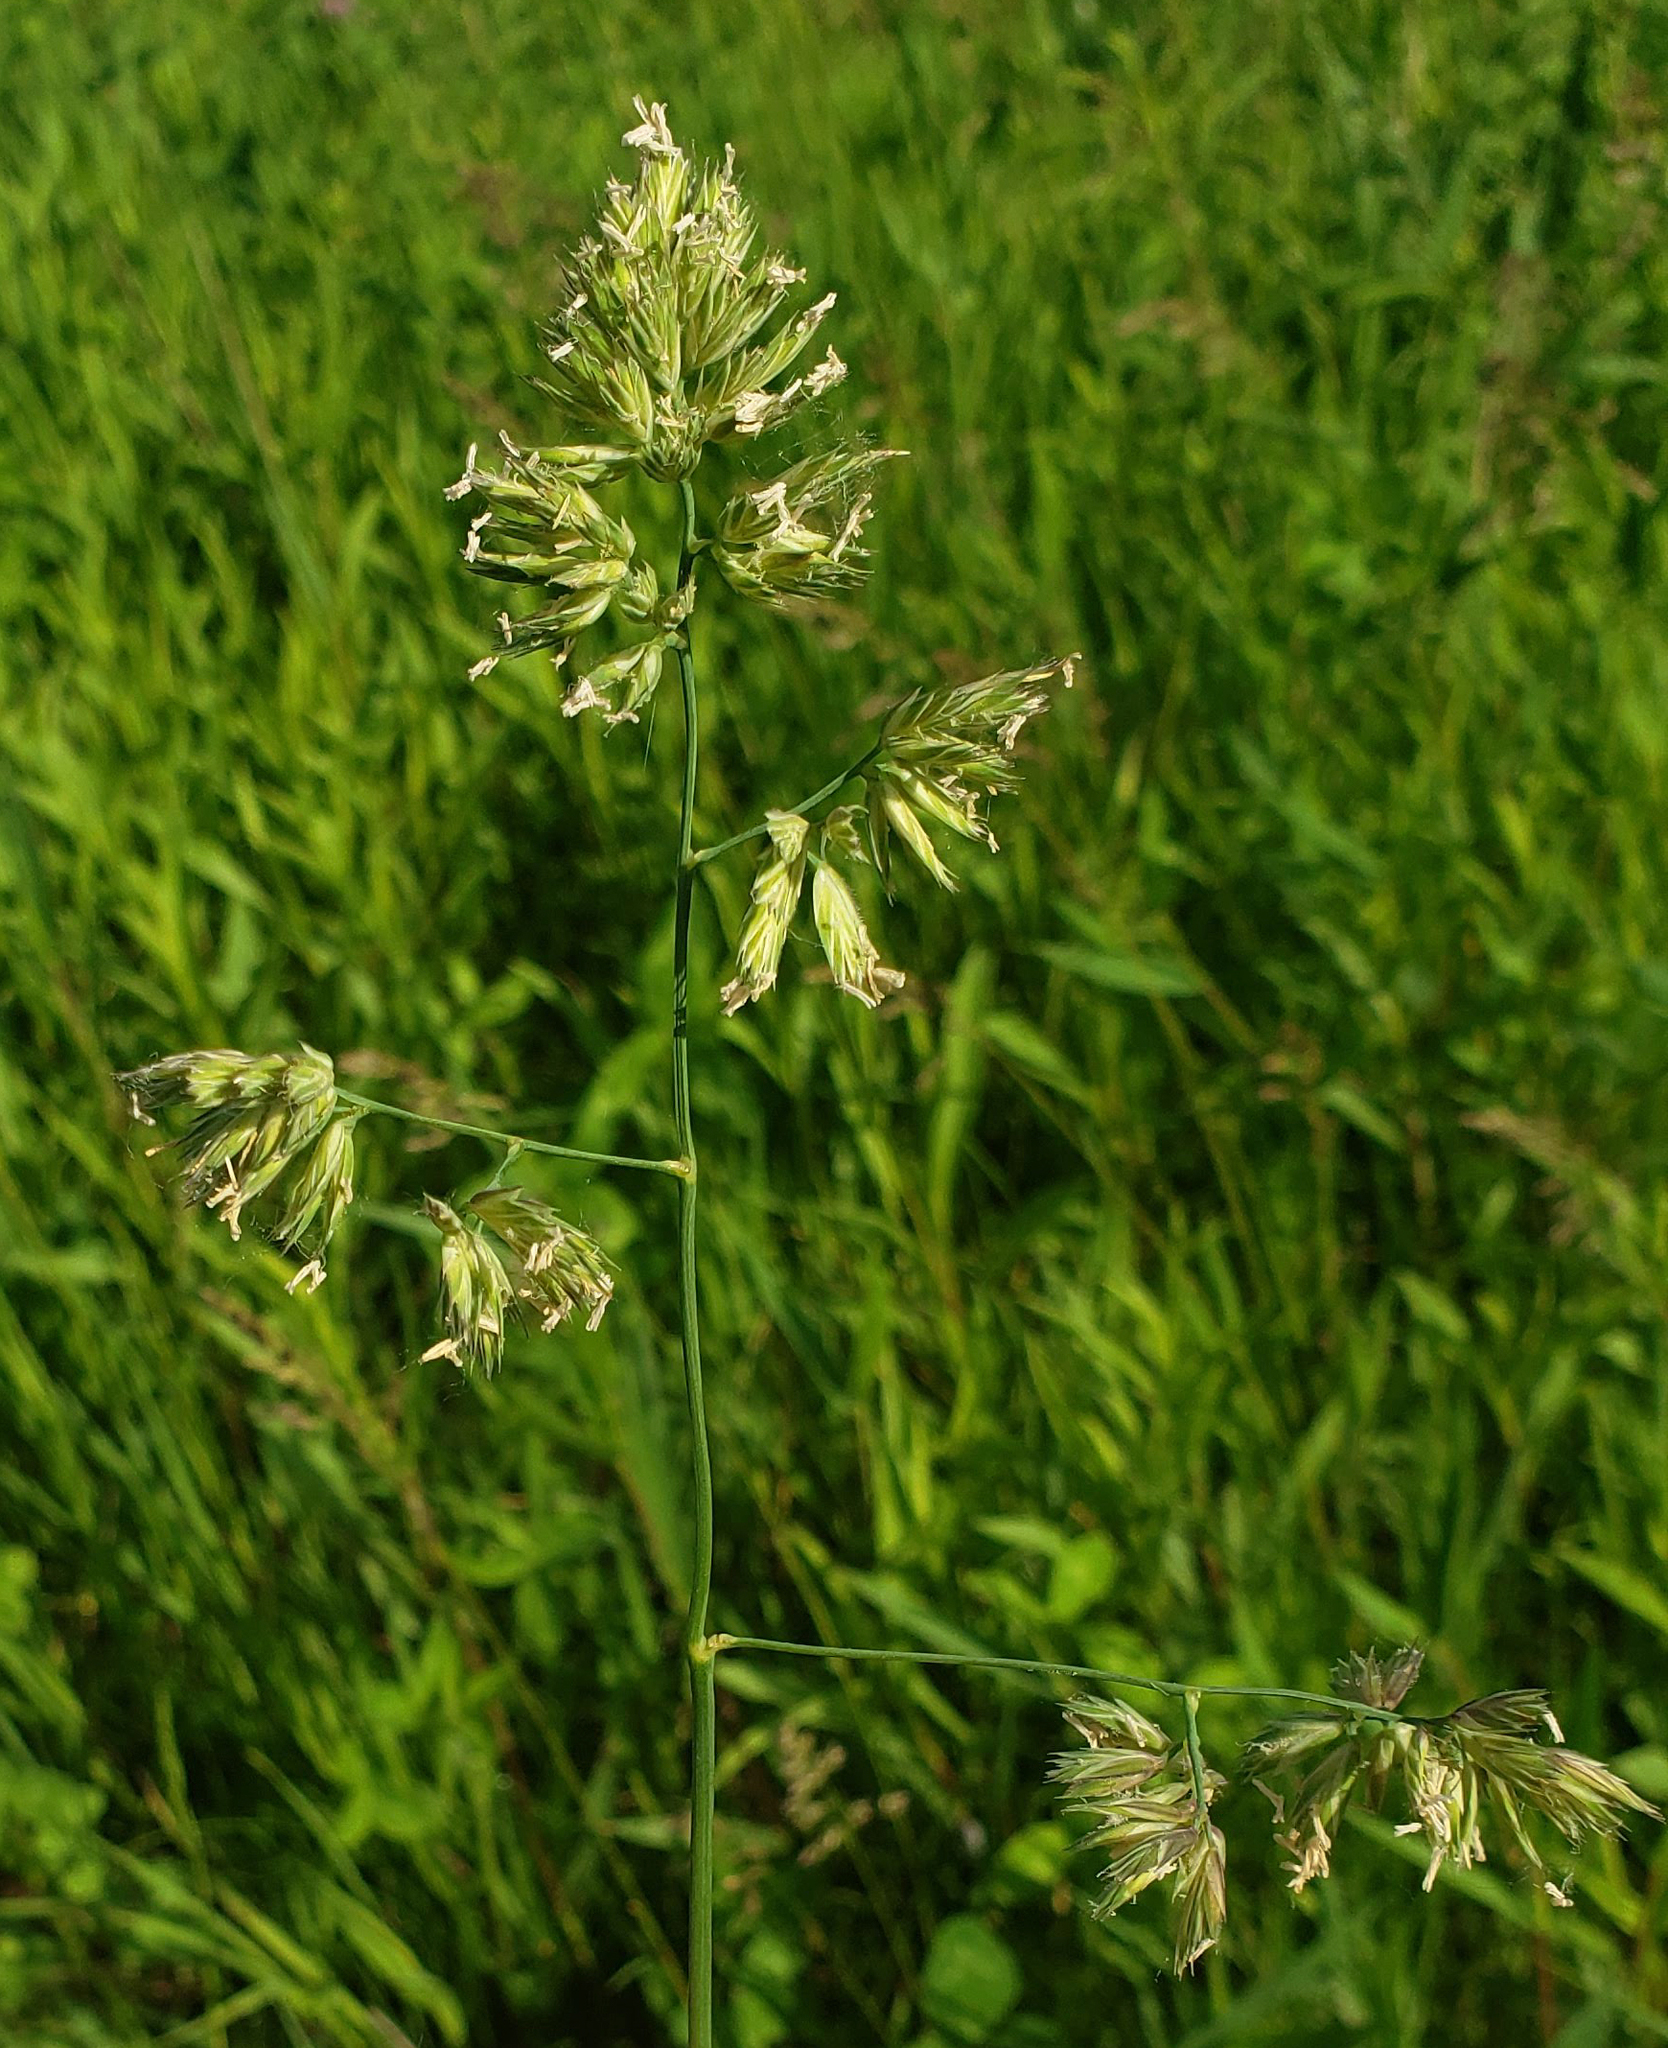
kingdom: Plantae
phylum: Tracheophyta
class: Liliopsida
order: Poales
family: Poaceae
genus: Dactylis
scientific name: Dactylis glomerata
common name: Orchardgrass
